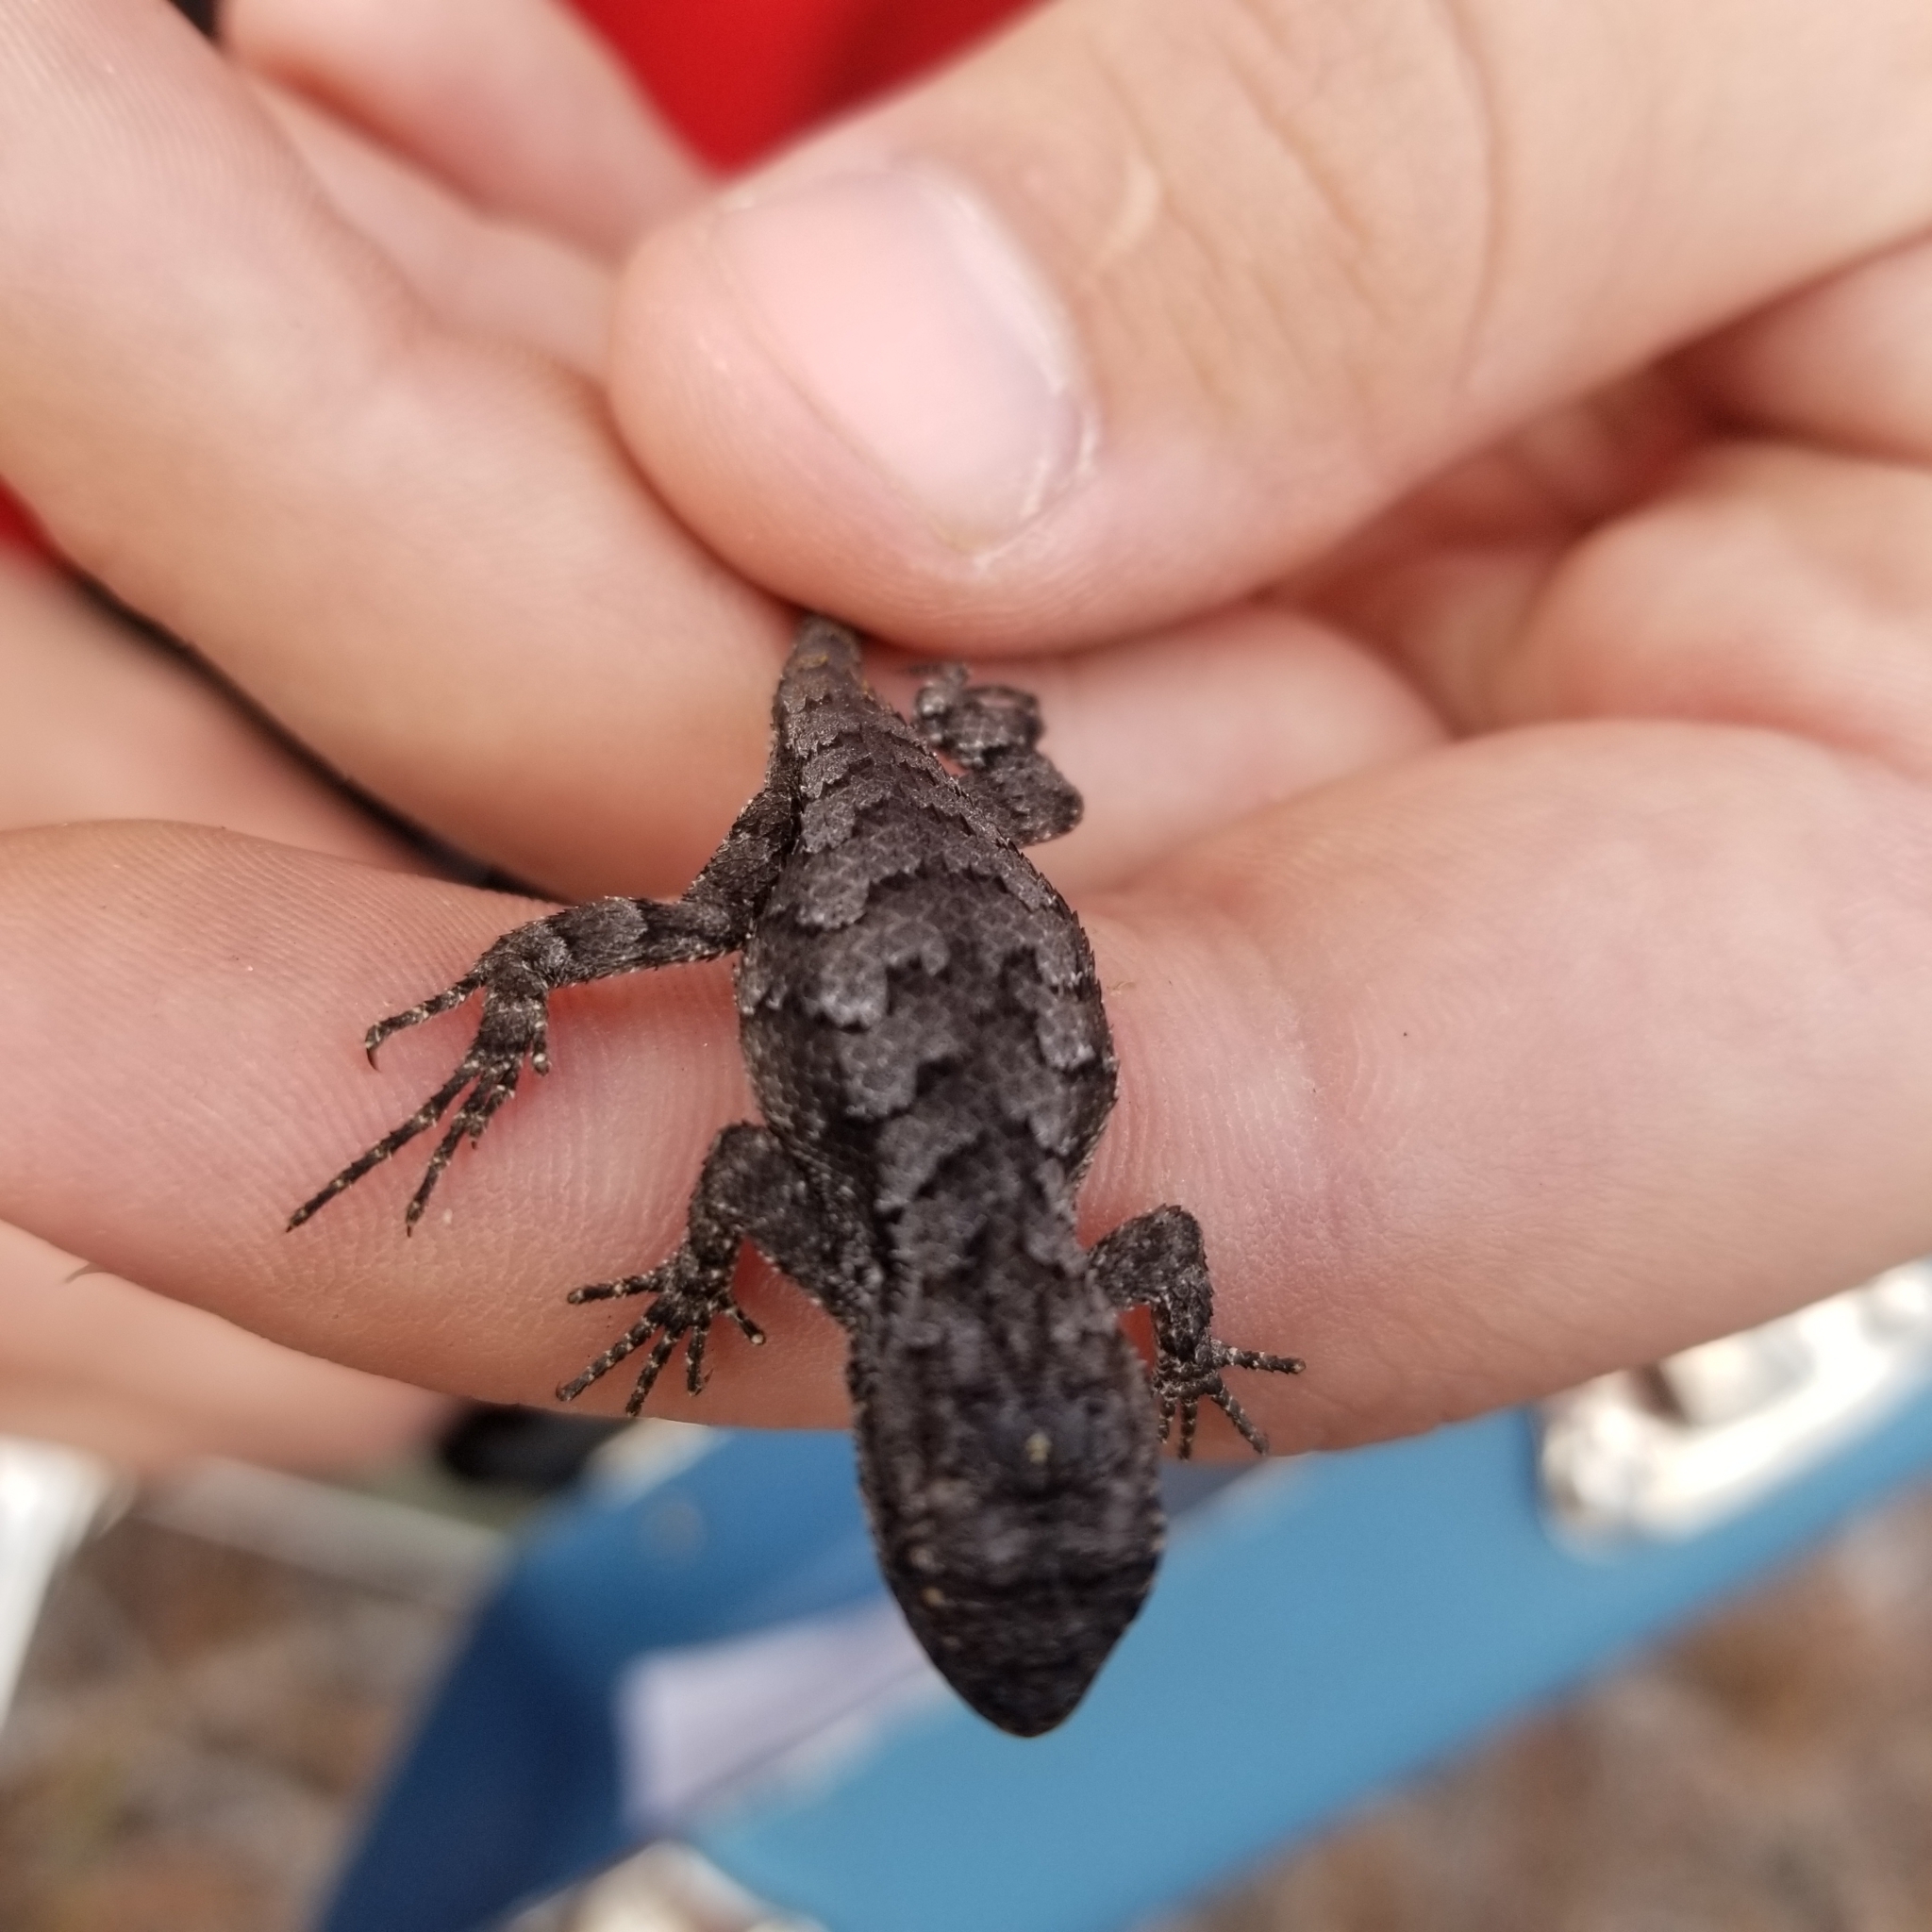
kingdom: Animalia
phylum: Chordata
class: Squamata
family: Phrynosomatidae
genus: Sceloporus
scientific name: Sceloporus undulatus
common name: Eastern fence lizard
